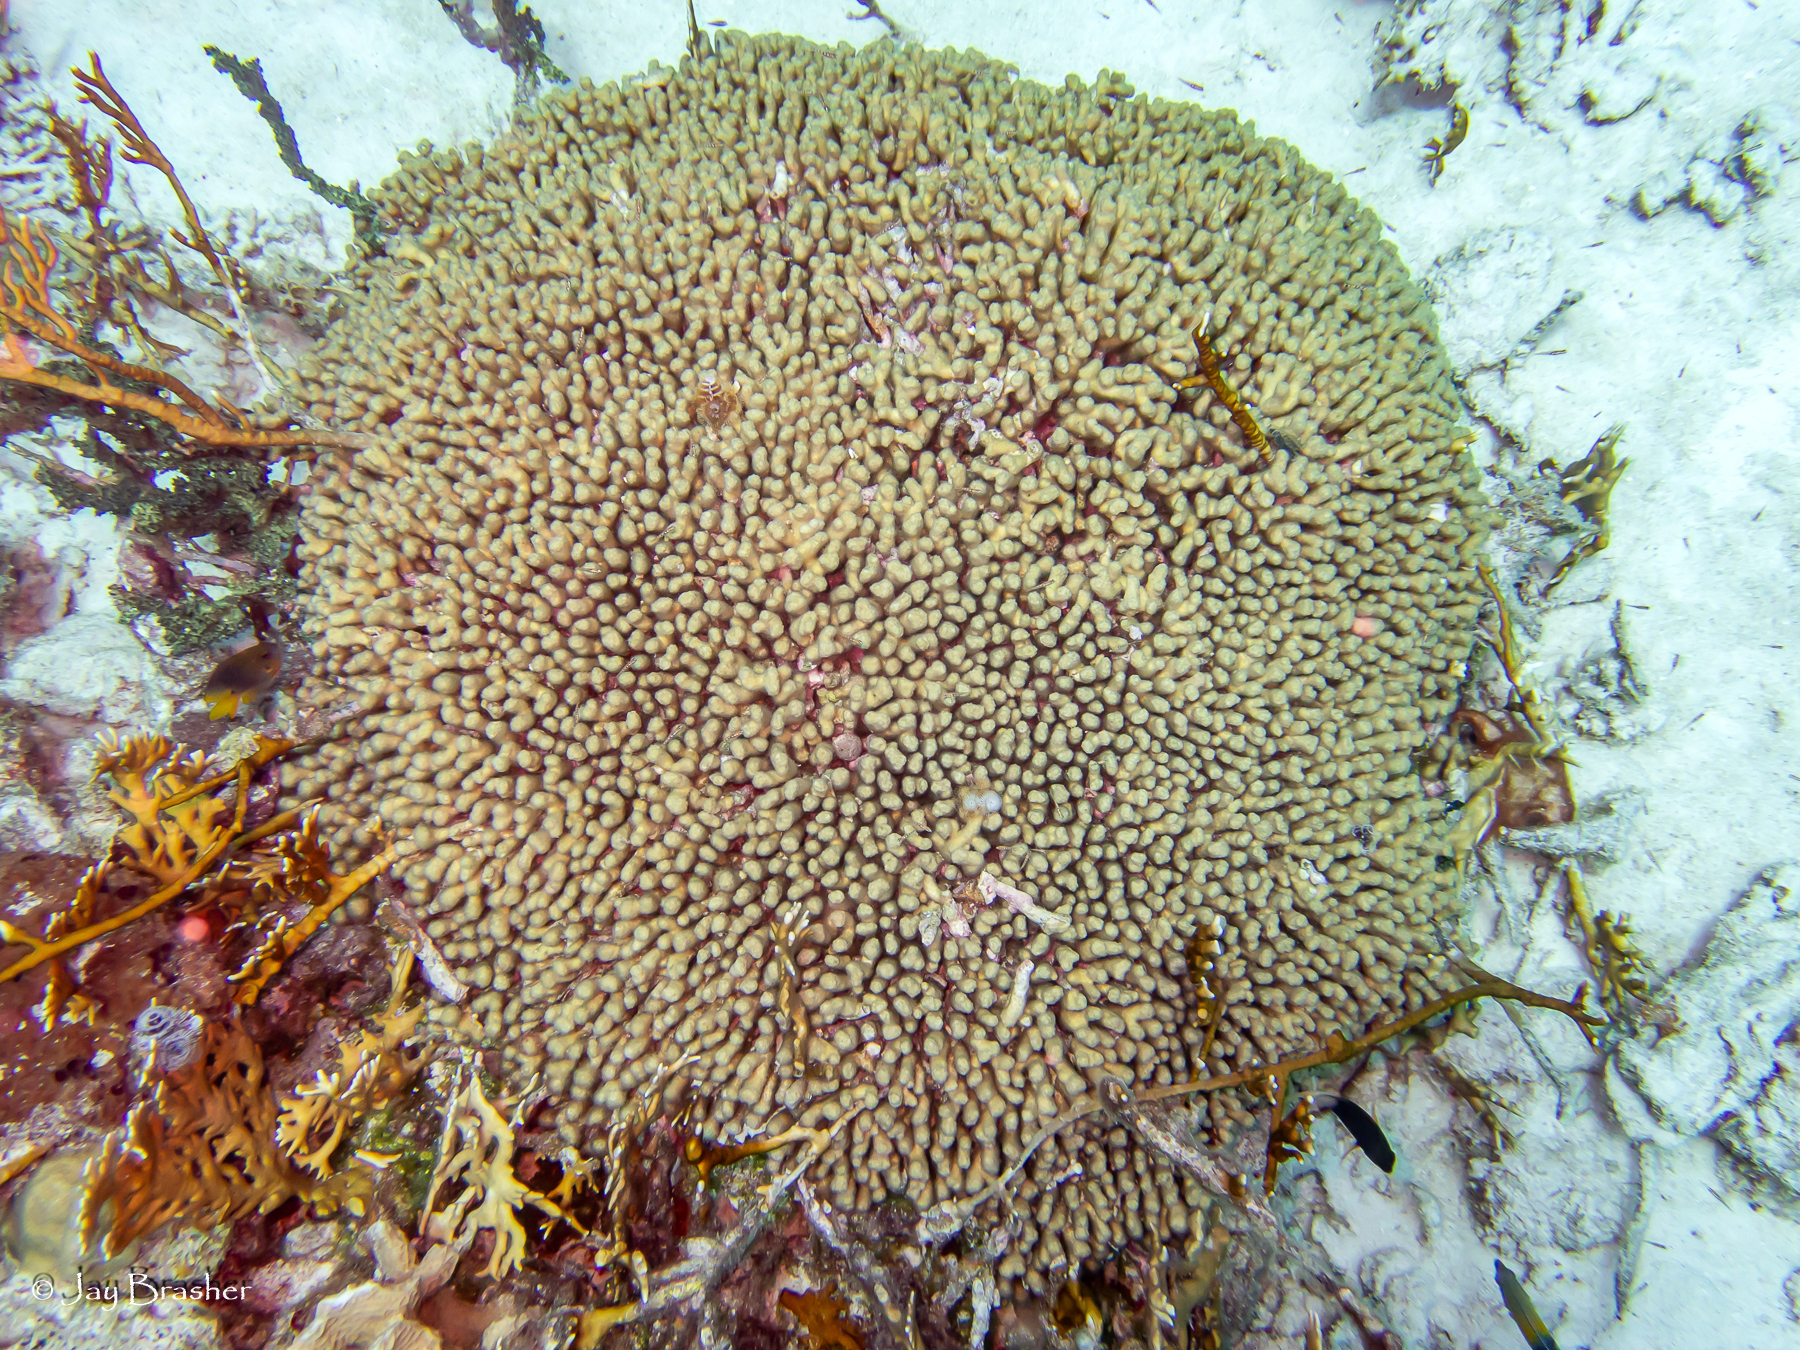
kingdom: Animalia
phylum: Cnidaria
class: Anthozoa
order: Scleractinia
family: Pocilloporidae
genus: Madracis
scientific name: Madracis auretenra
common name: Yellow pencil coral
